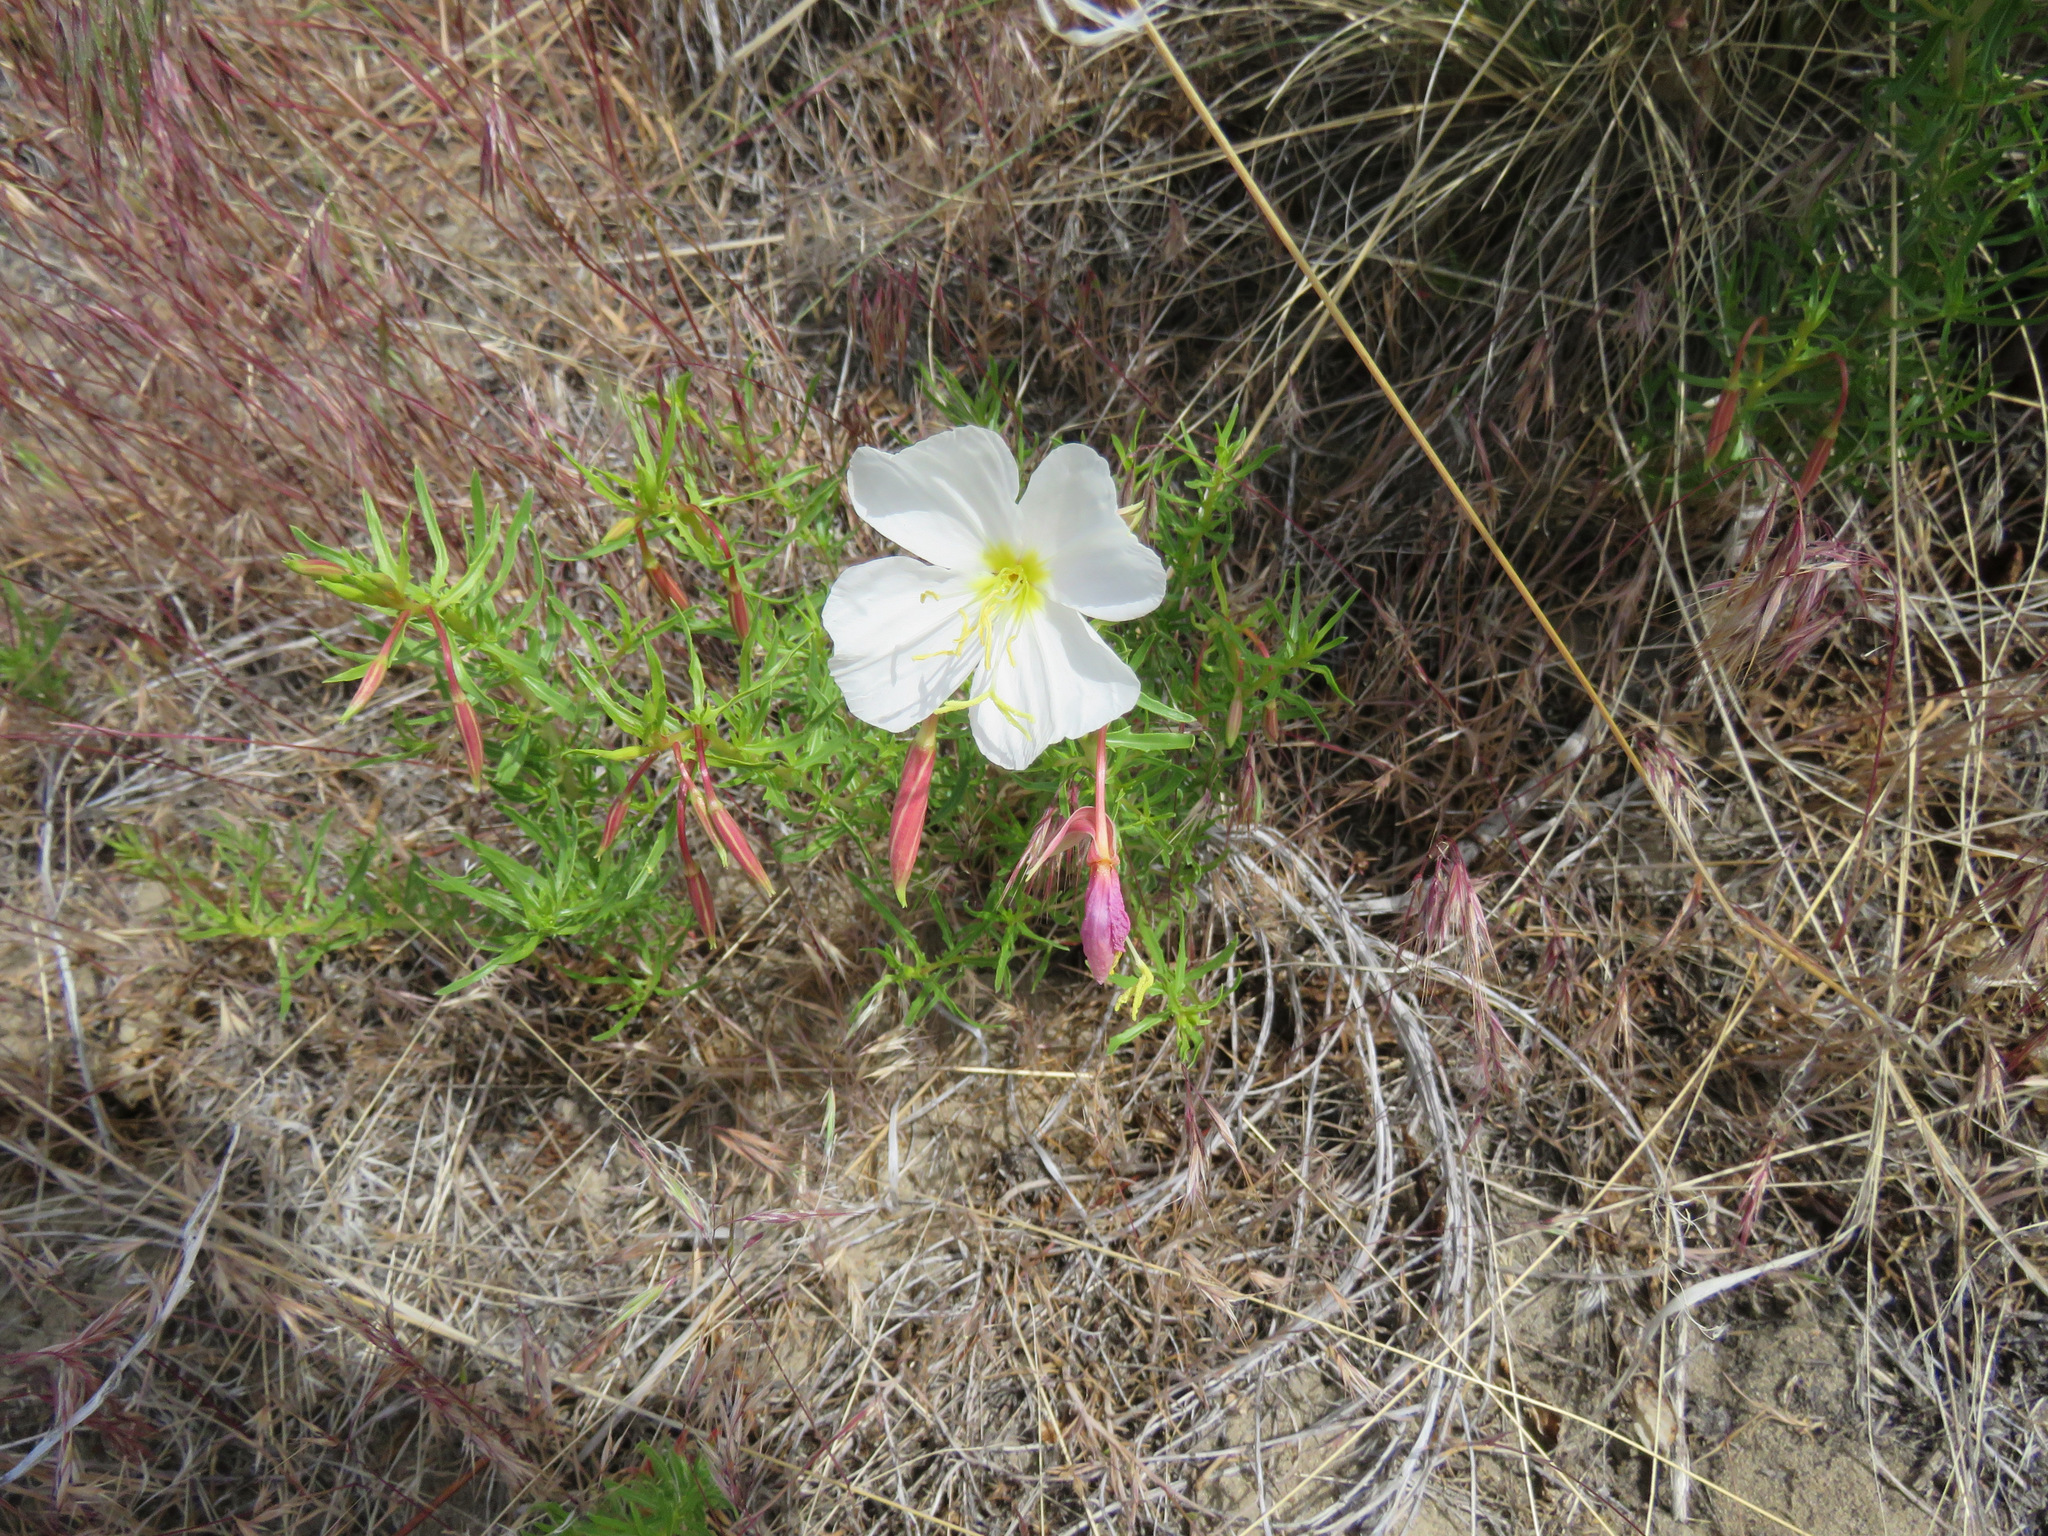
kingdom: Plantae
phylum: Tracheophyta
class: Magnoliopsida
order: Myrtales
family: Onagraceae
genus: Oenothera
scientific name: Oenothera pallida
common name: Pale evening-primrose
